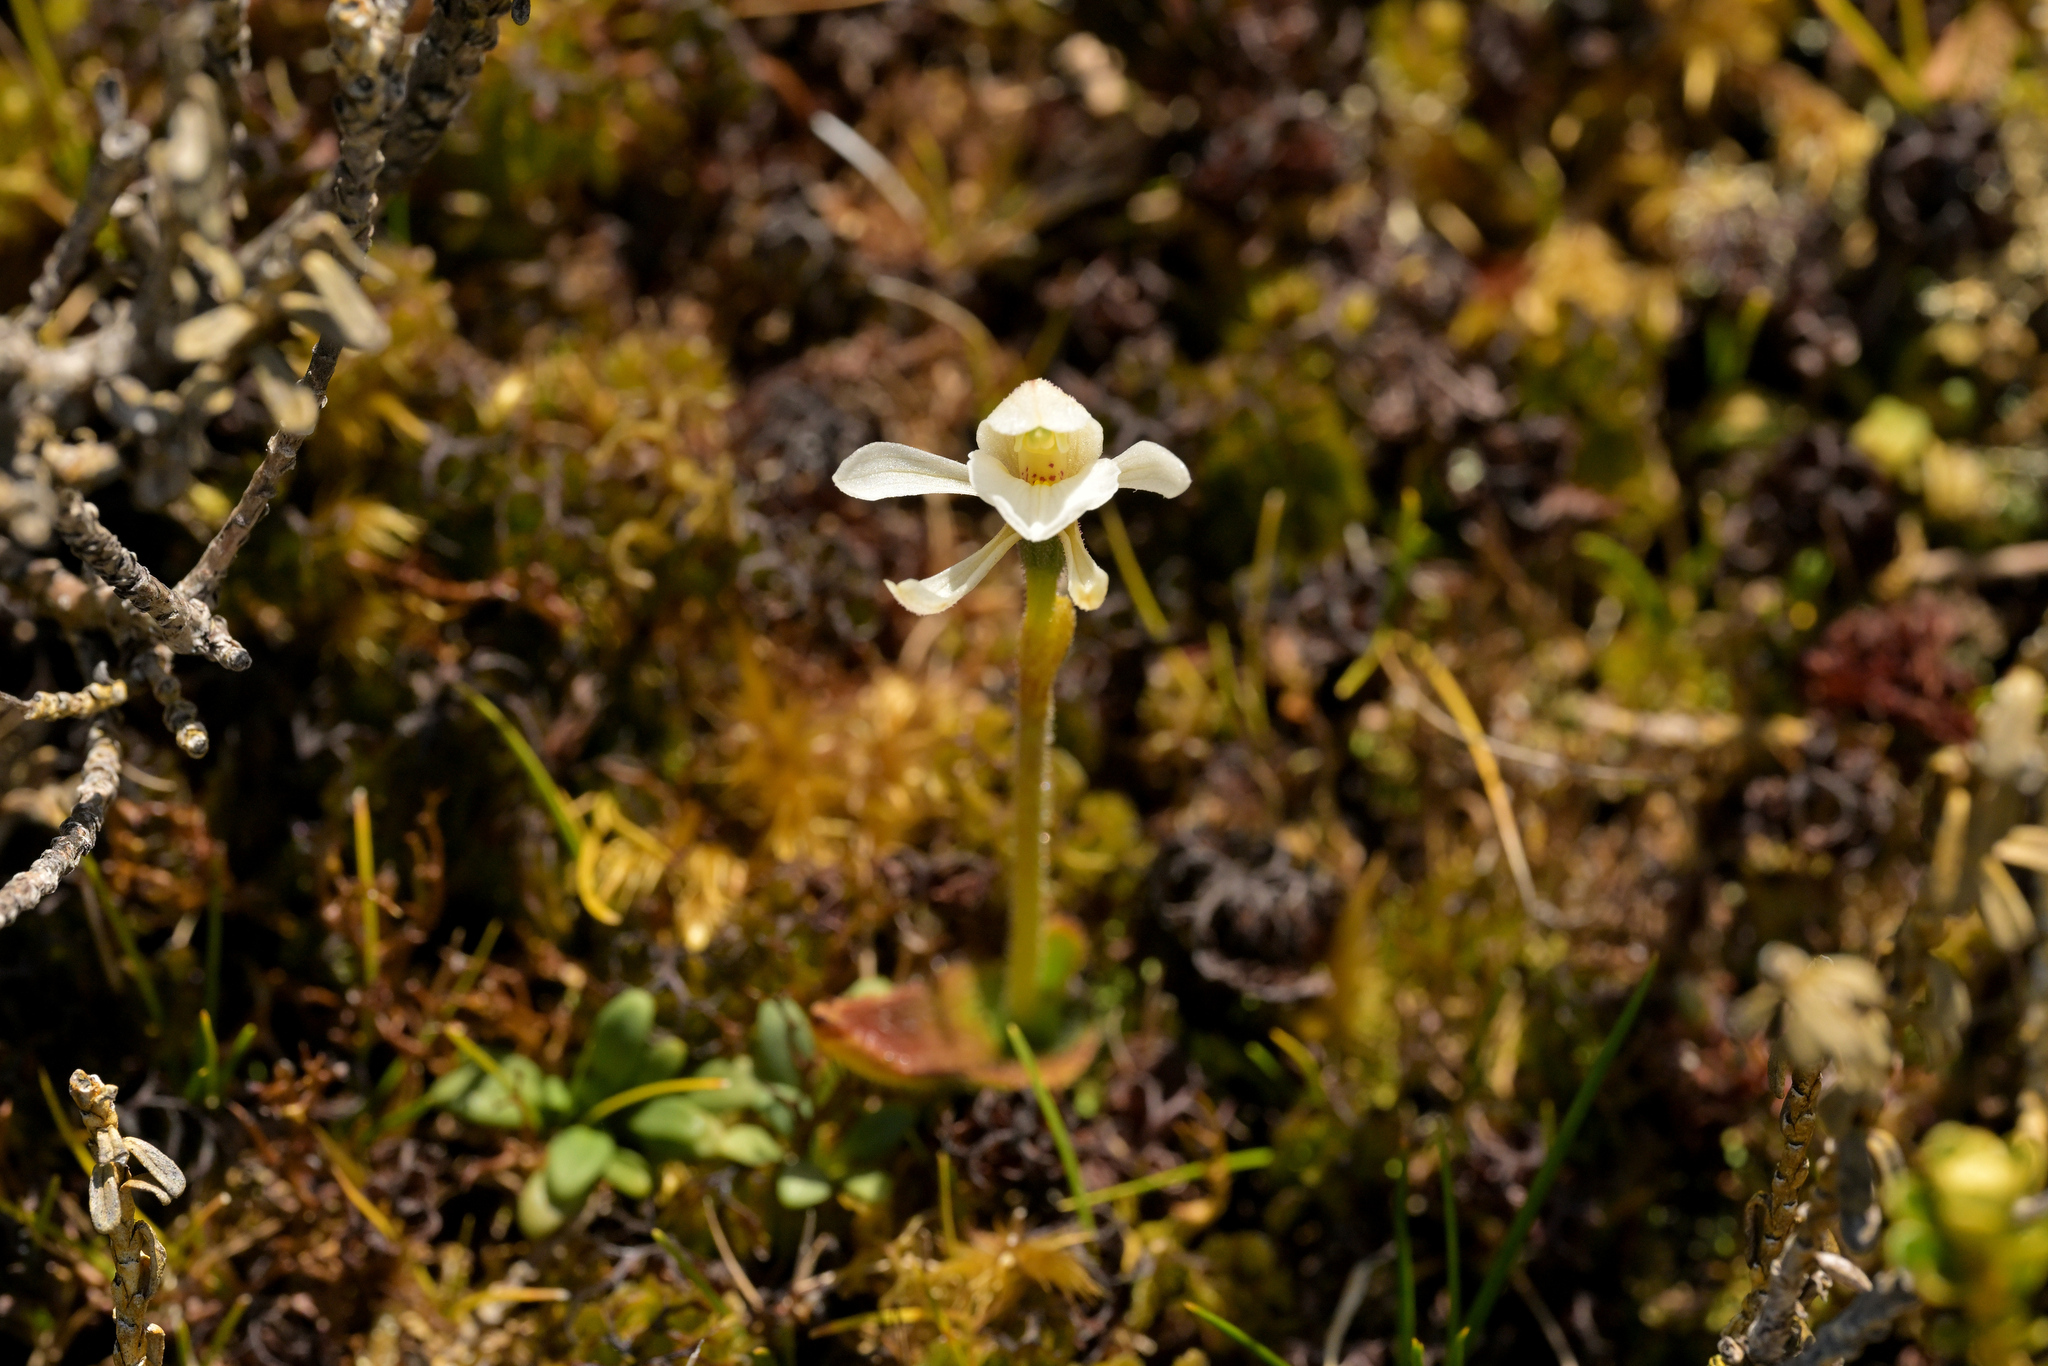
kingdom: Plantae
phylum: Tracheophyta
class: Liliopsida
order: Asparagales
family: Orchidaceae
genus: Aporostylis
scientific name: Aporostylis bifolia
